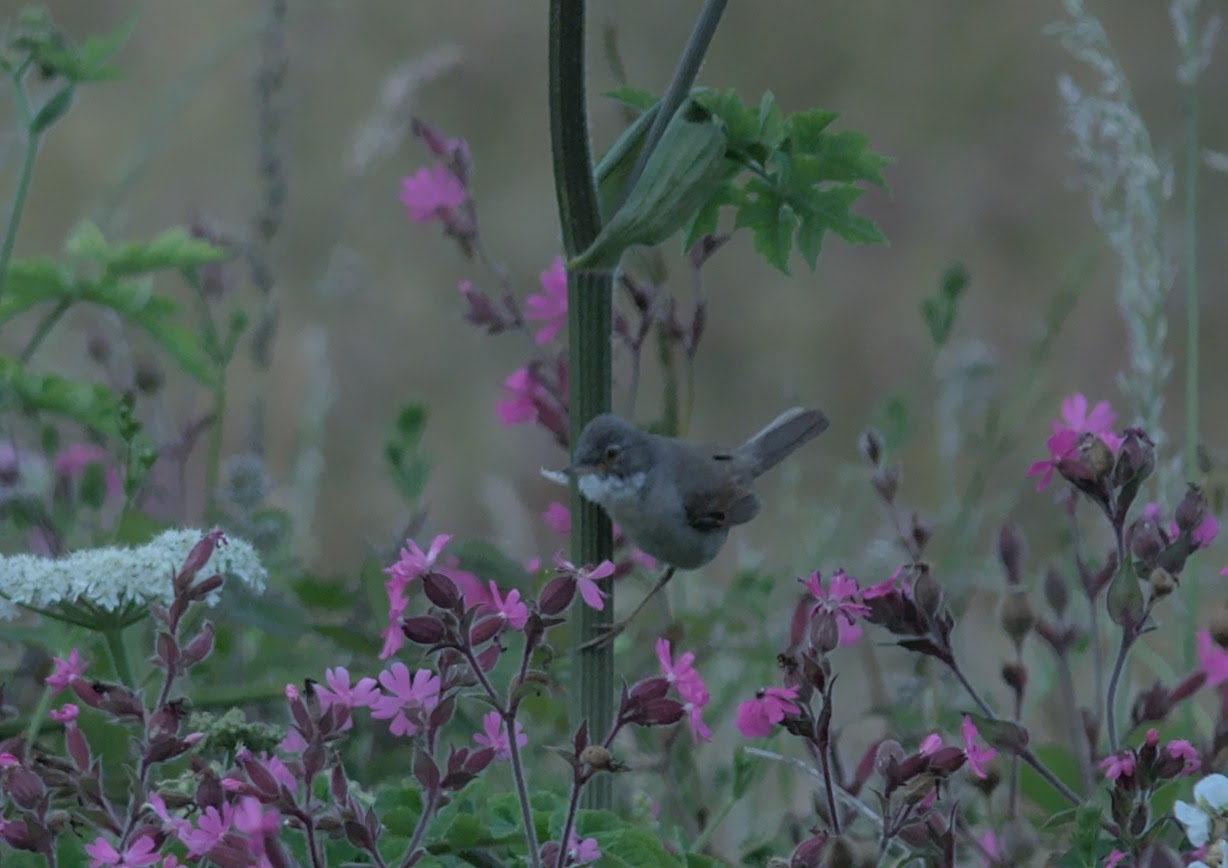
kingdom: Animalia
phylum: Chordata
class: Aves
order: Passeriformes
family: Sylviidae
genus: Sylvia
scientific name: Sylvia communis
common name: Common whitethroat
